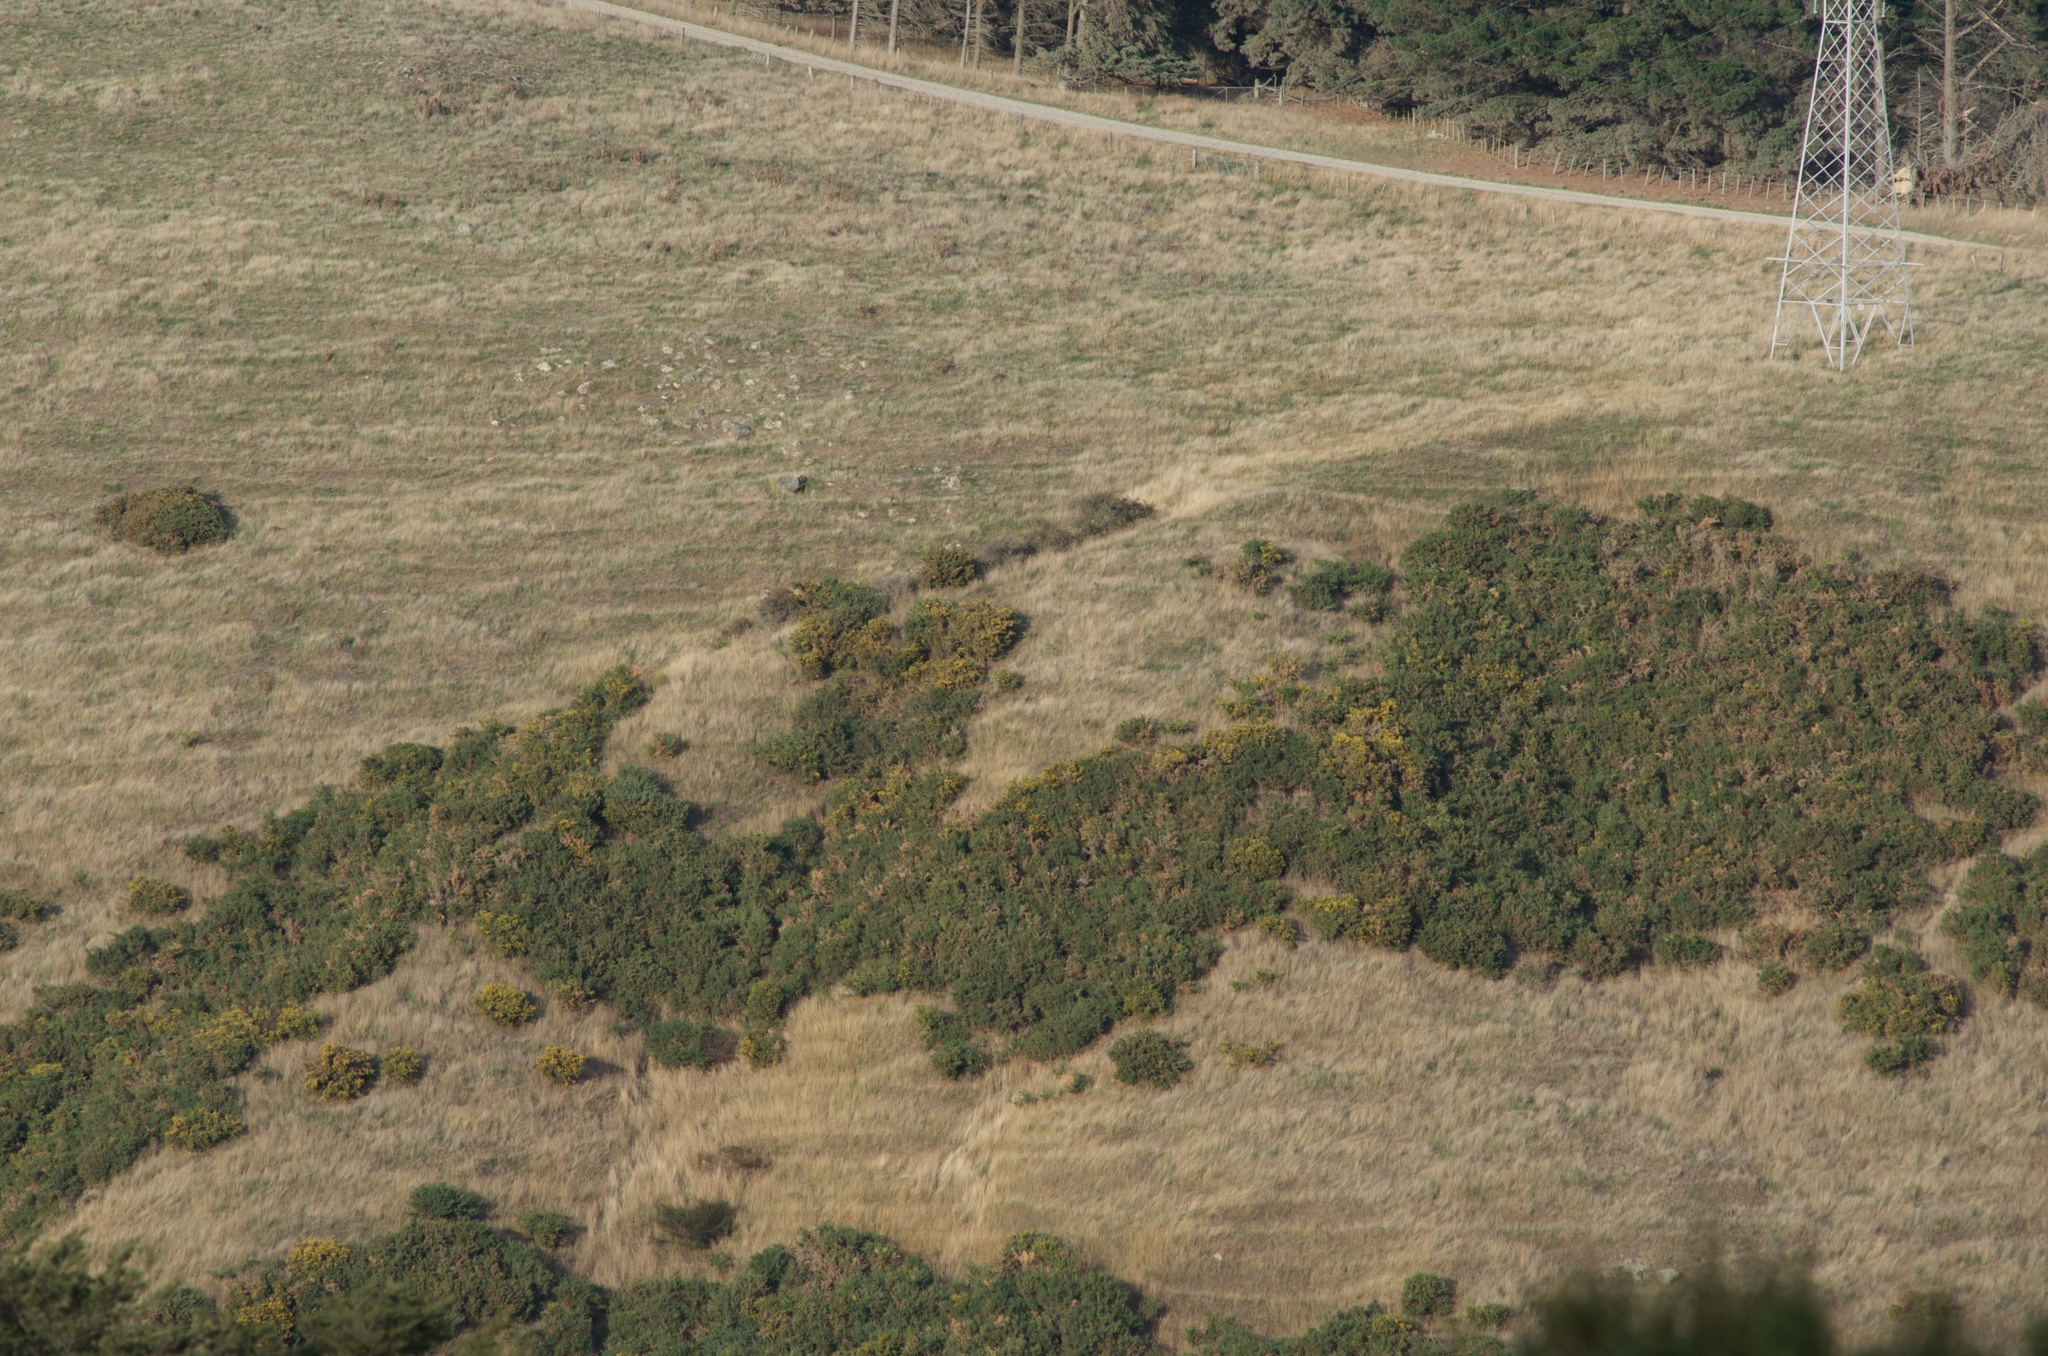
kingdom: Plantae
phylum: Tracheophyta
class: Magnoliopsida
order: Fabales
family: Fabaceae
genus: Ulex
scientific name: Ulex europaeus
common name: Common gorse
